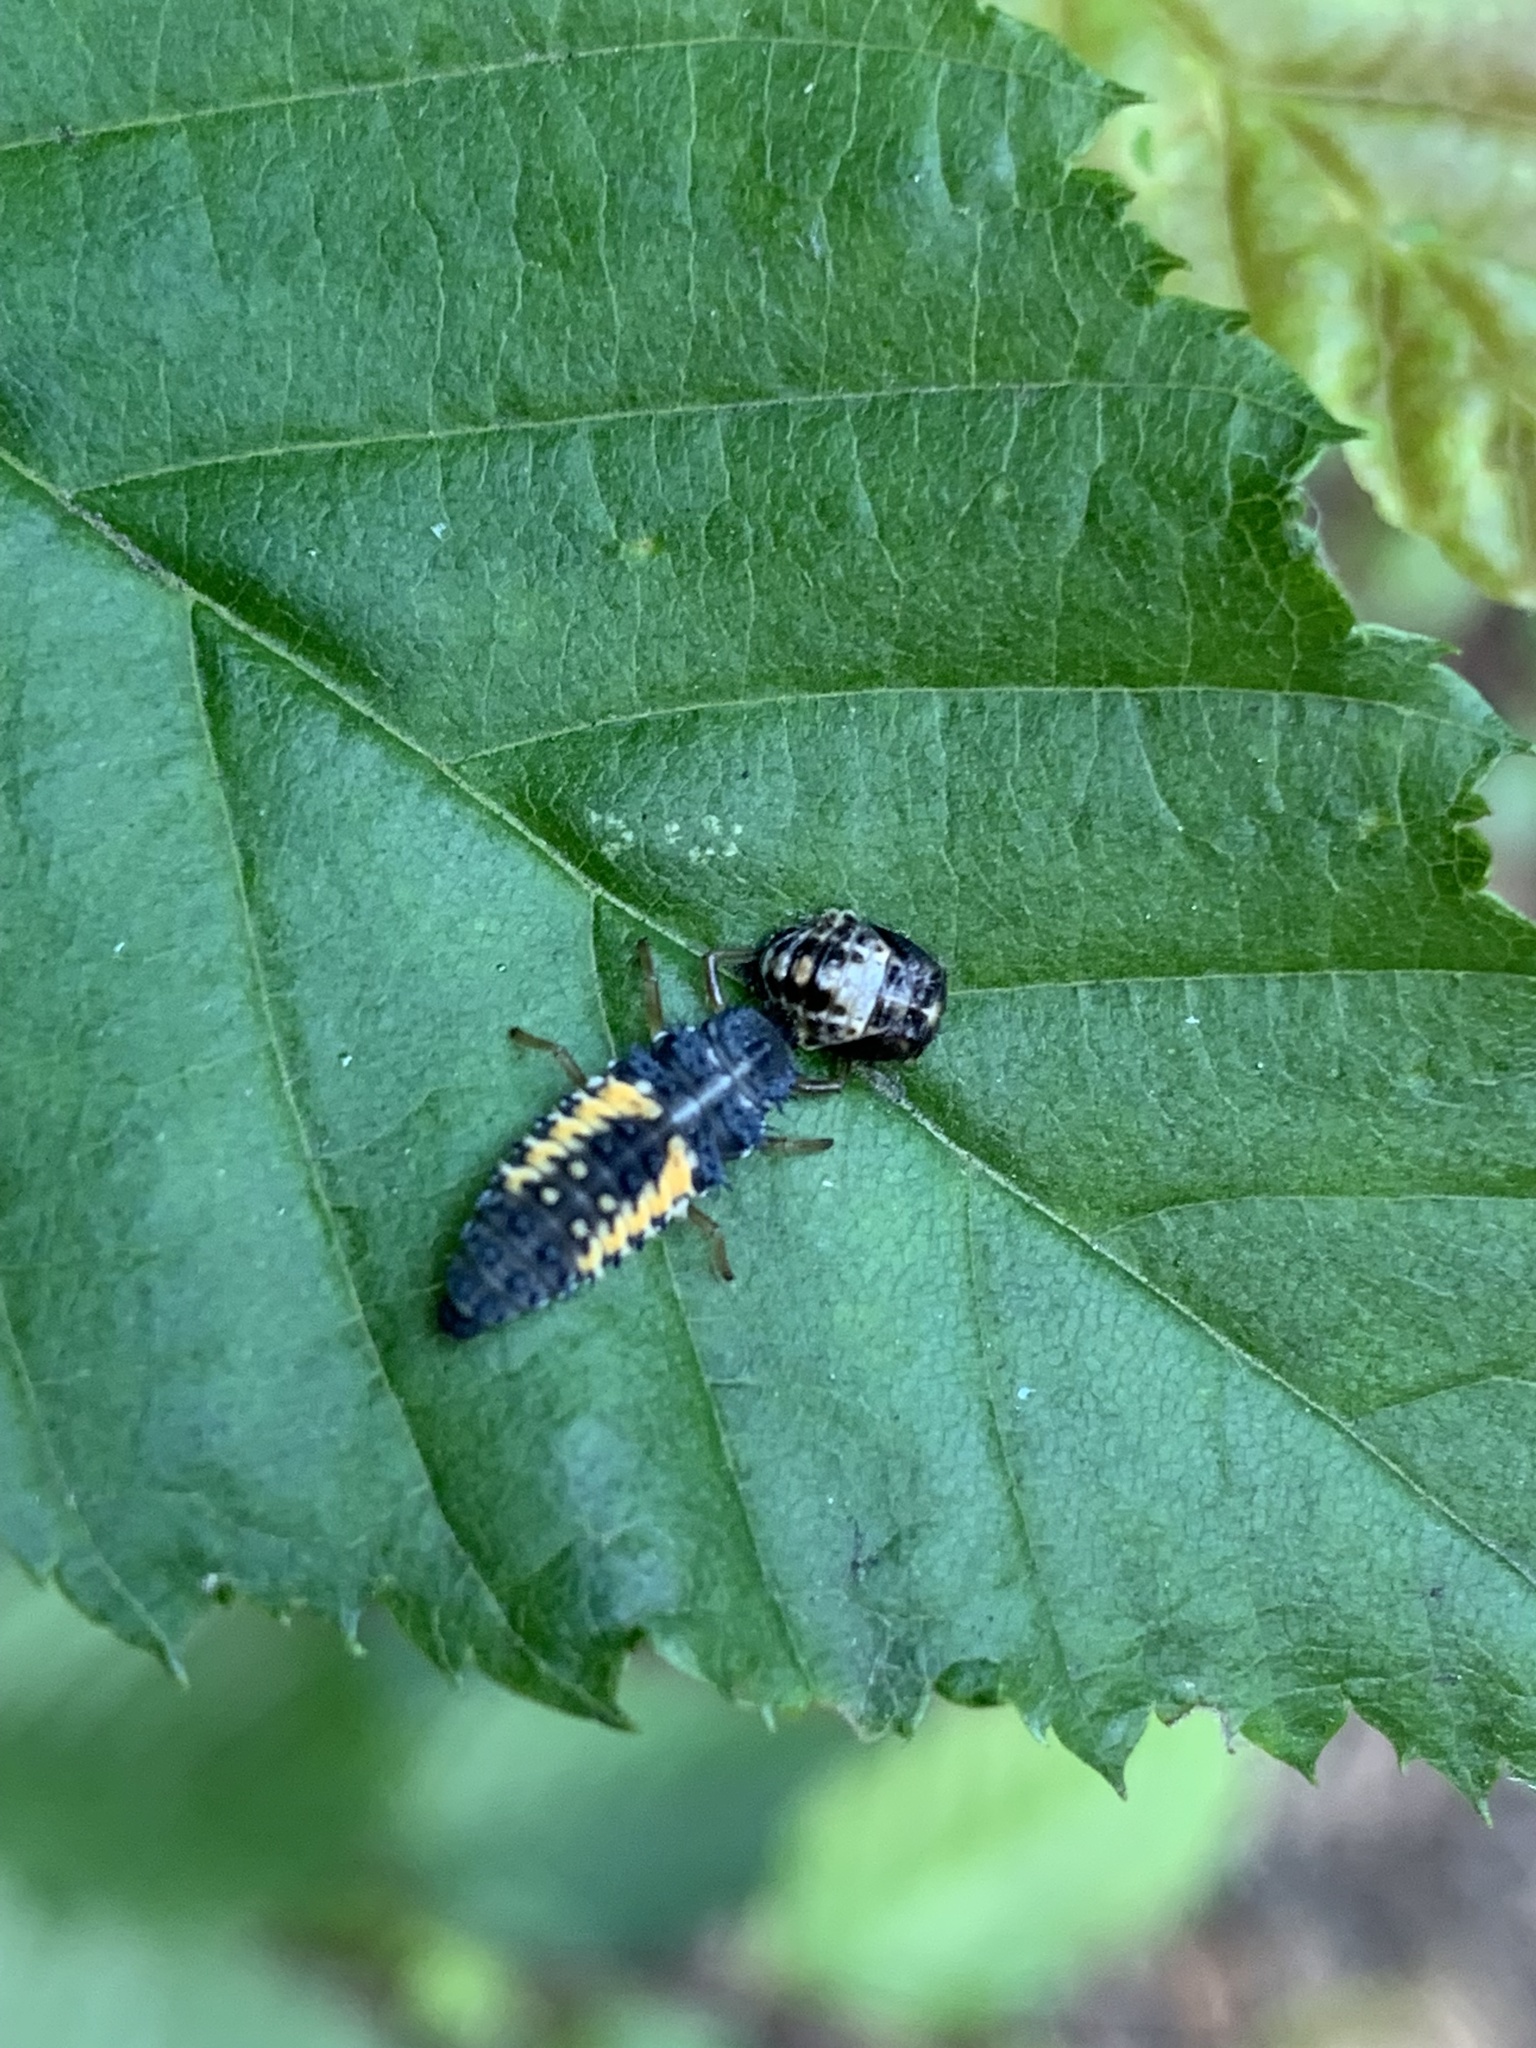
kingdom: Animalia
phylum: Arthropoda
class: Insecta
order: Coleoptera
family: Coccinellidae
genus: Harmonia
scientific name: Harmonia axyridis
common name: Harlequin ladybird
